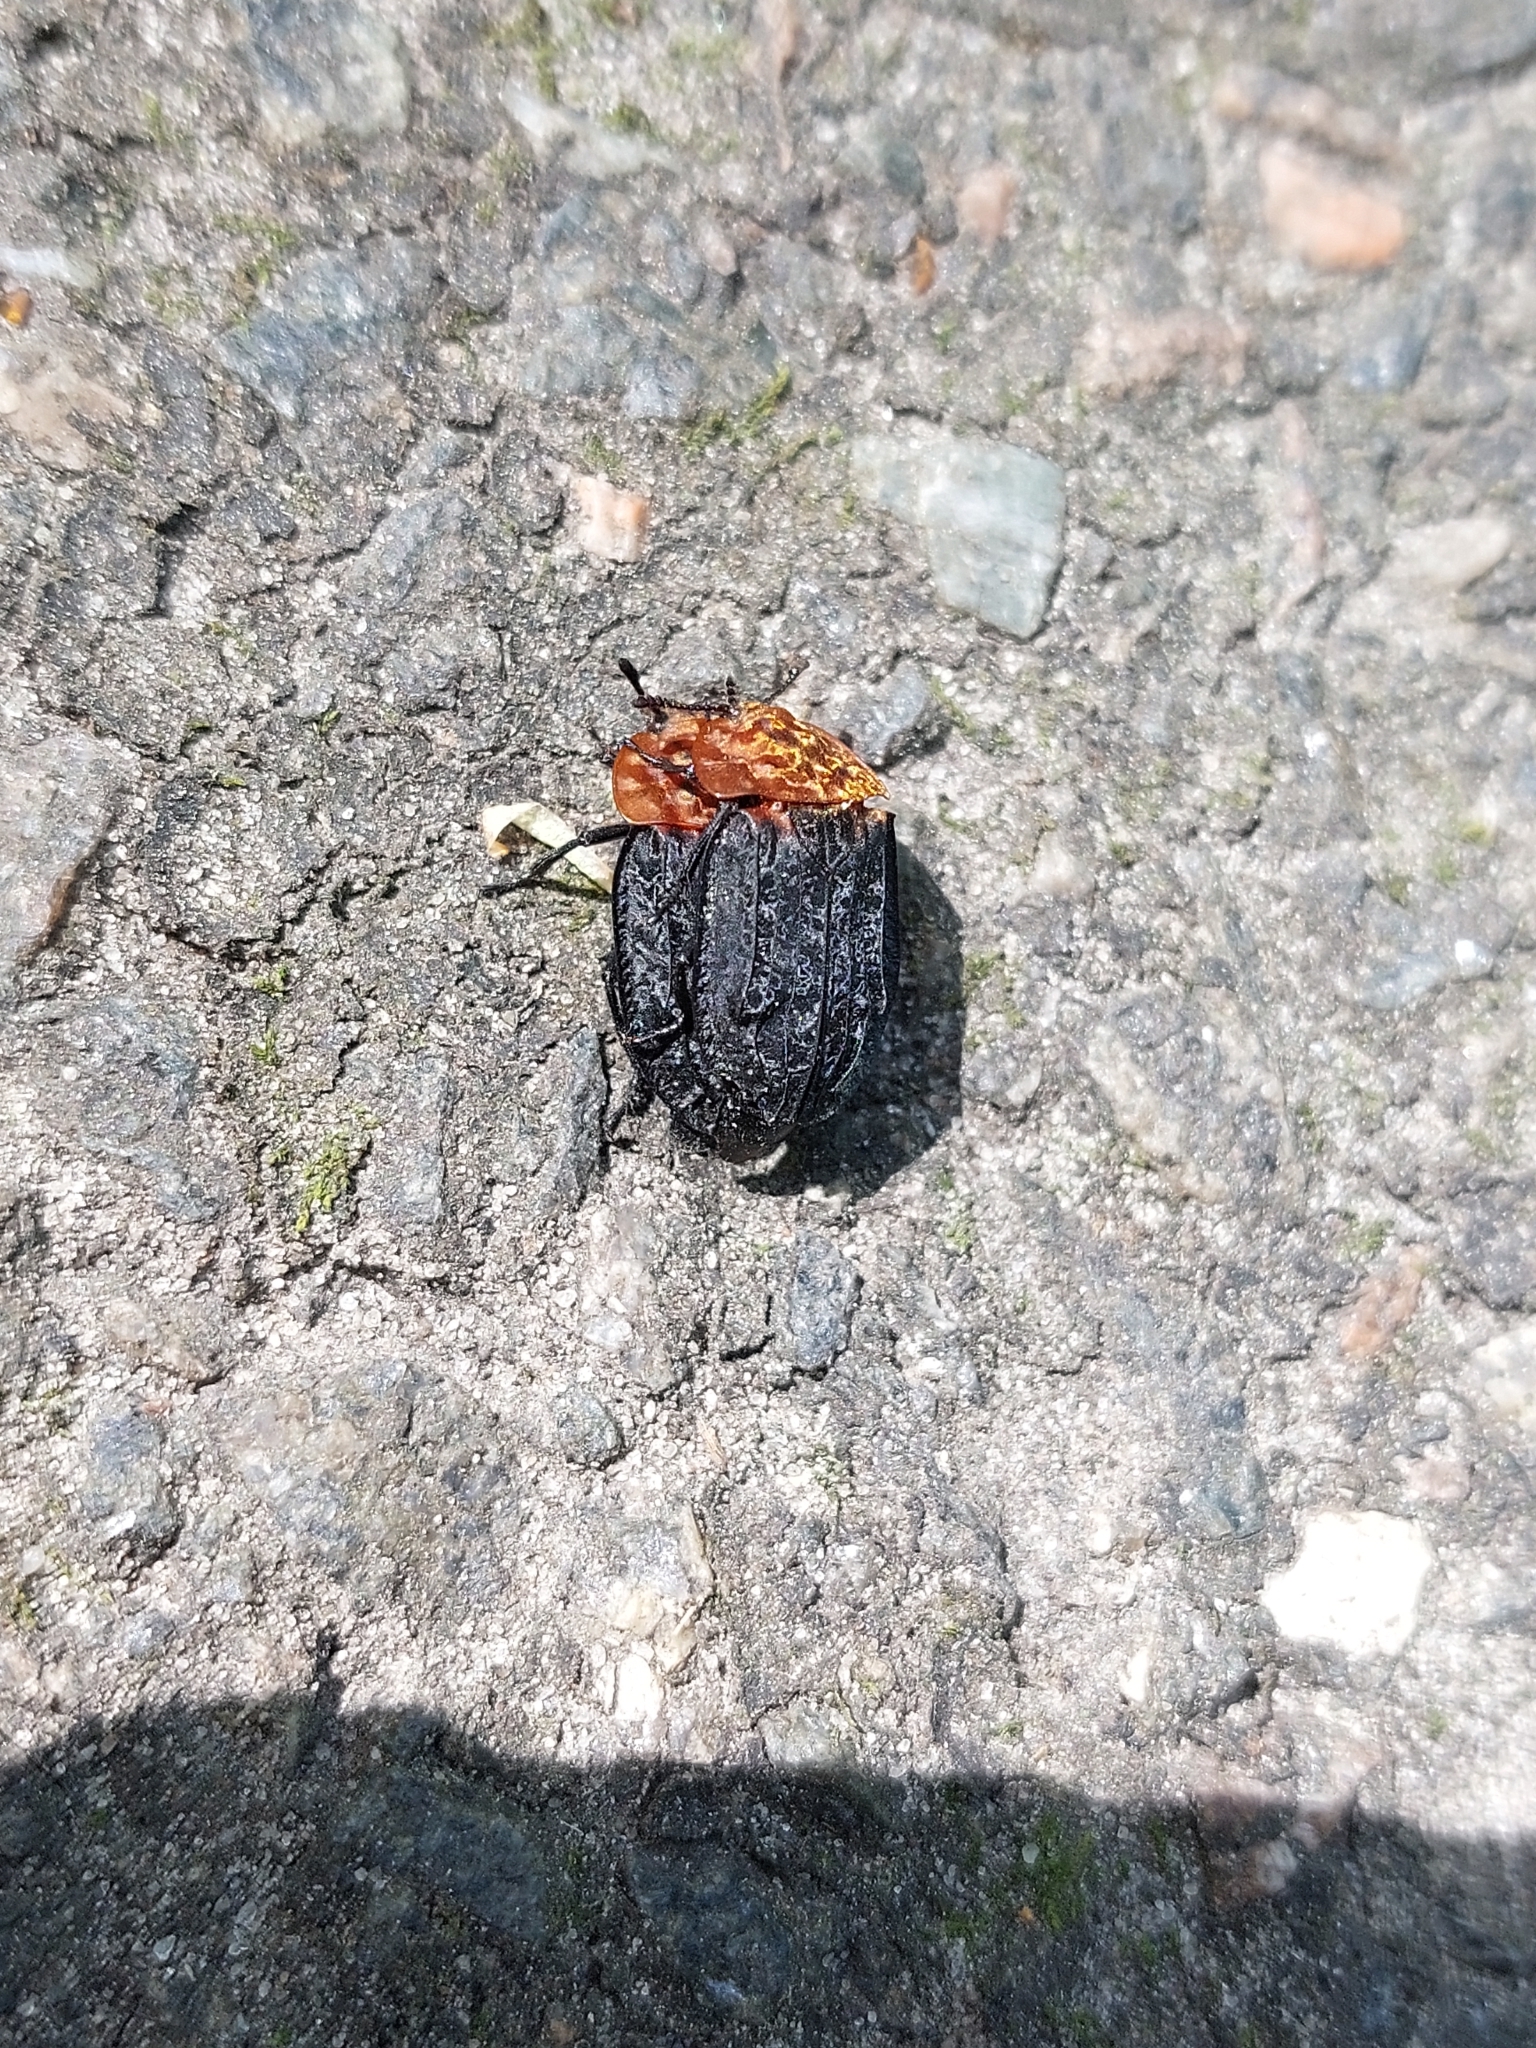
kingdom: Animalia
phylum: Arthropoda
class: Insecta
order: Coleoptera
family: Staphylinidae
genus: Oiceoptoma
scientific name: Oiceoptoma thoracicum
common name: Red-breasted carrion beetle
